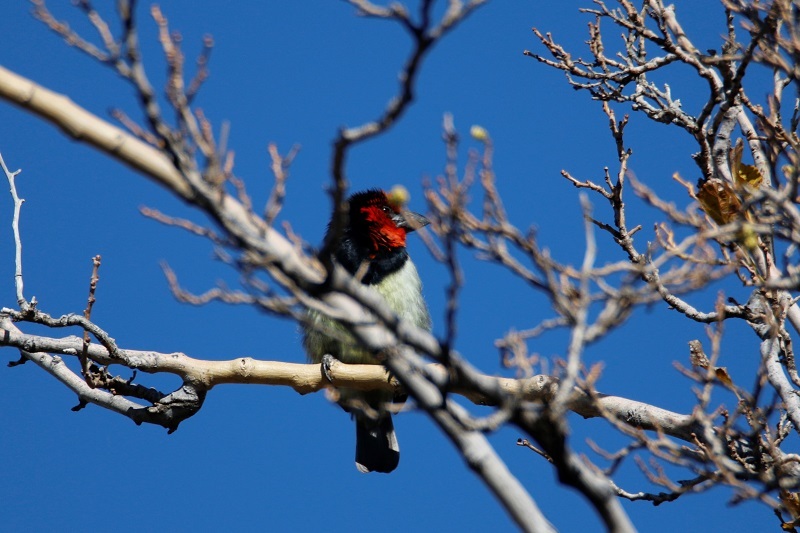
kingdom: Animalia
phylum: Chordata
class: Aves
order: Piciformes
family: Lybiidae
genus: Lybius
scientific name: Lybius torquatus
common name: Black-collared barbet
